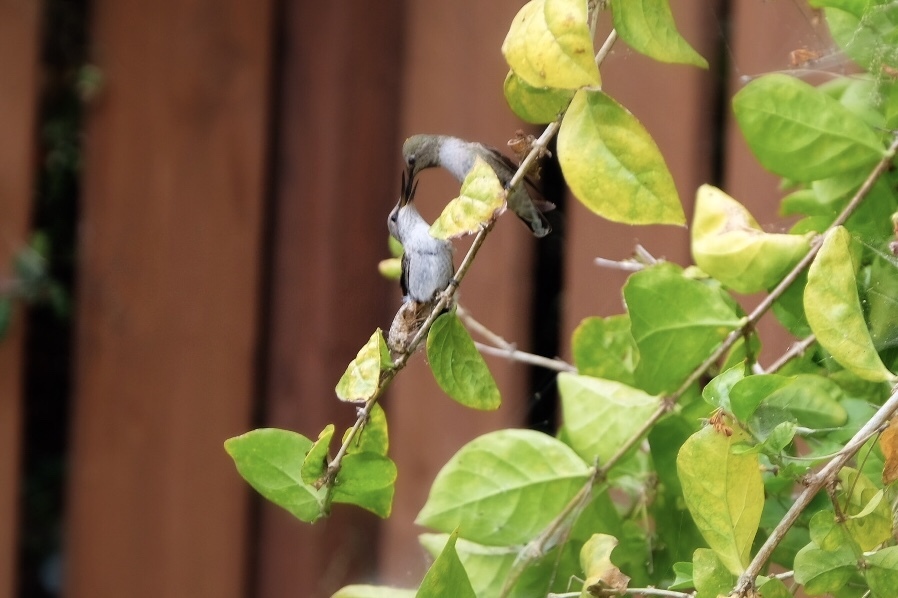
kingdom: Animalia
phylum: Chordata
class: Aves
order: Apodiformes
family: Trochilidae
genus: Calypte
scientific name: Calypte anna
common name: Anna's hummingbird
